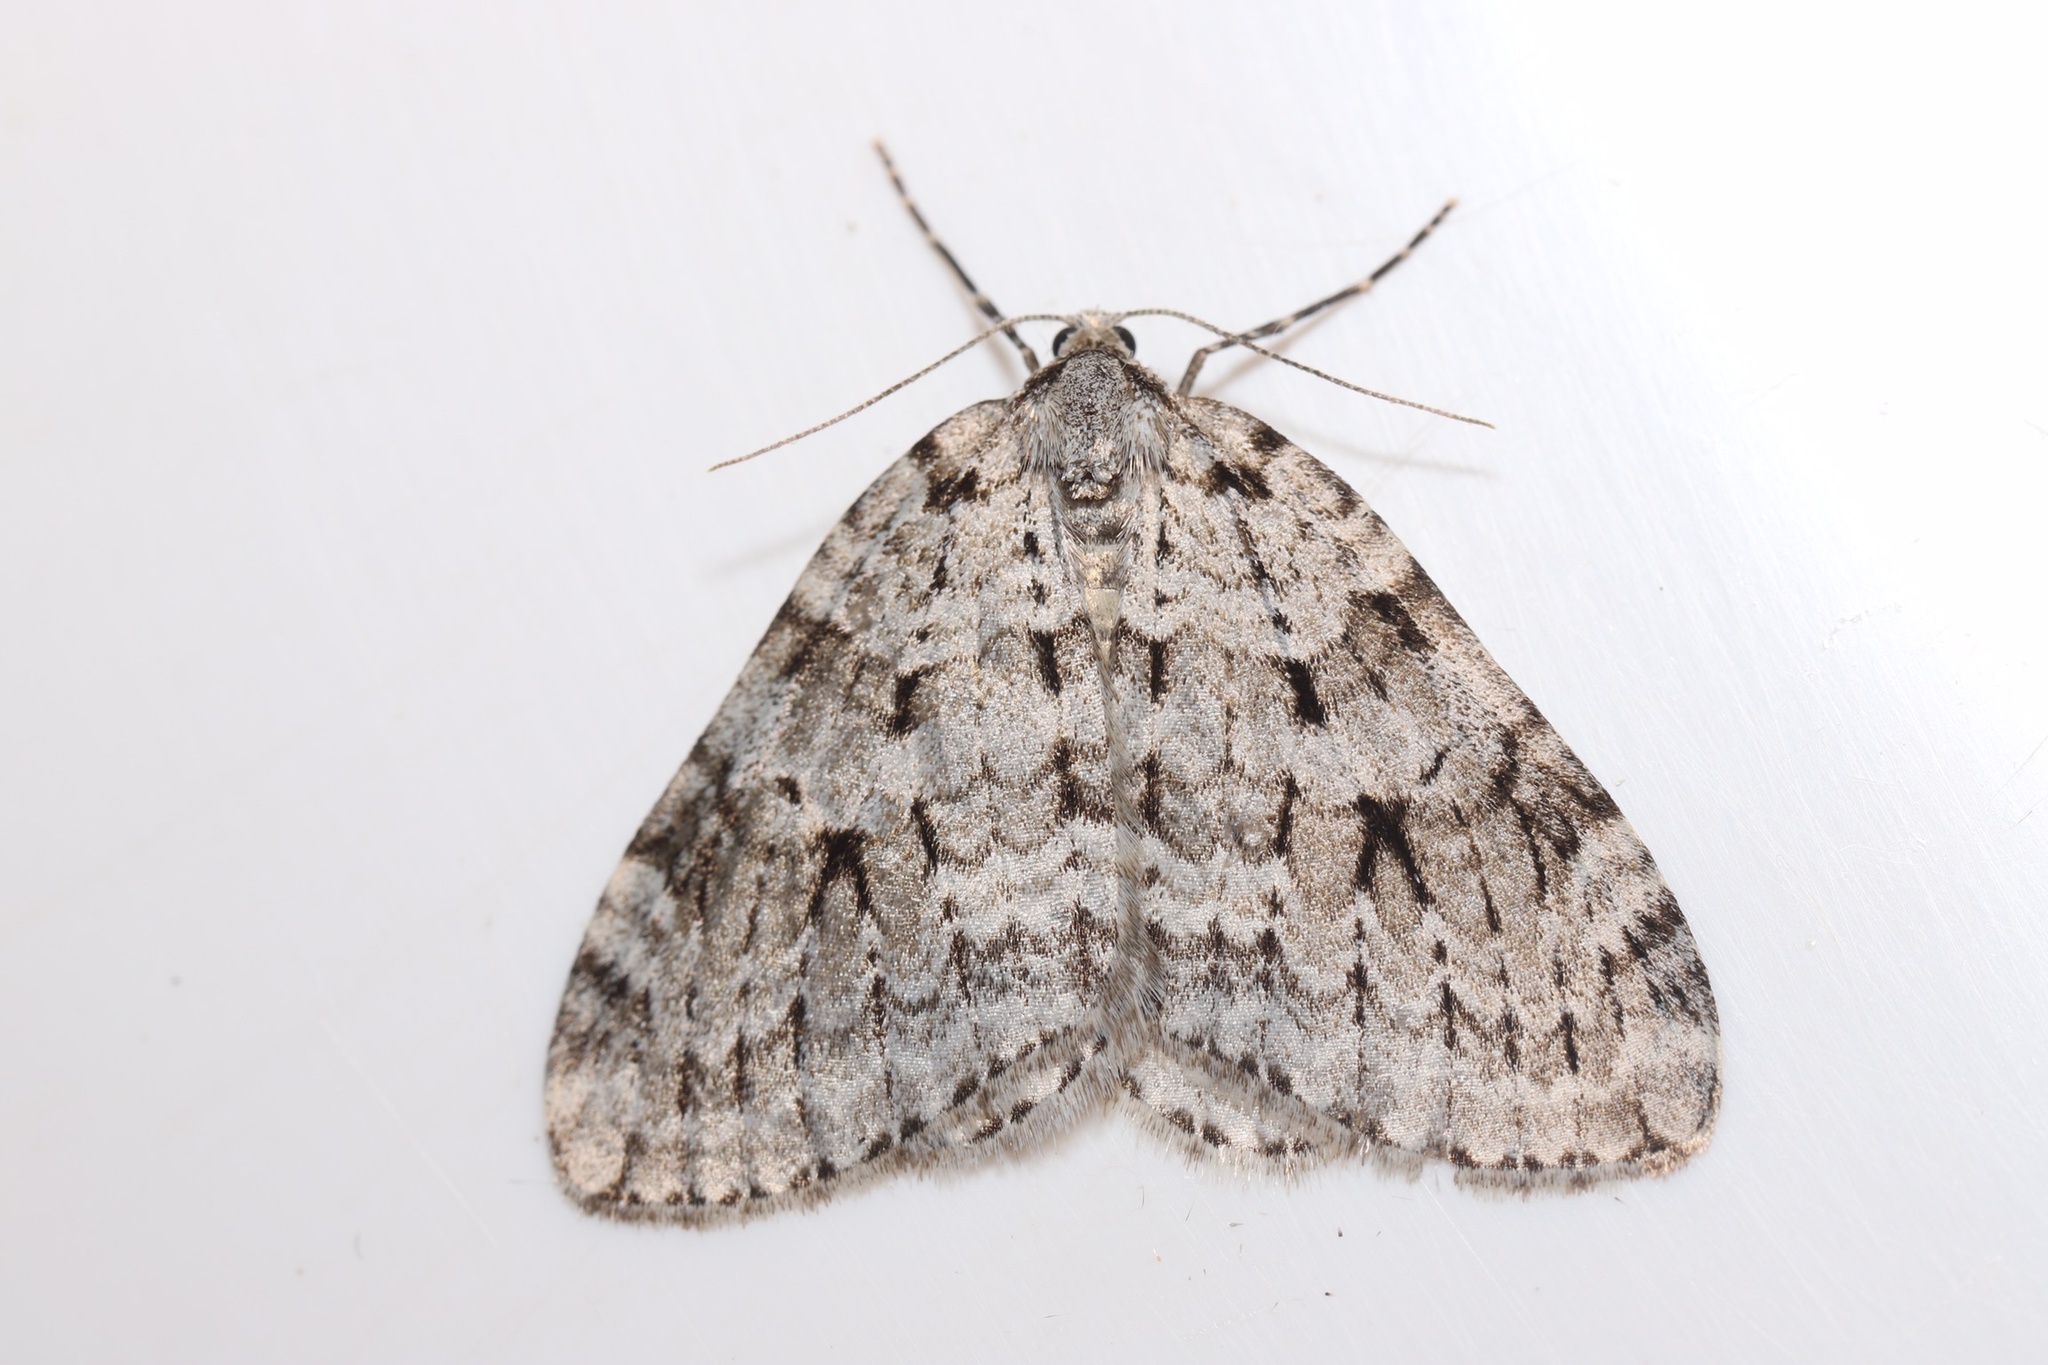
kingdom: Animalia
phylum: Arthropoda
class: Insecta
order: Lepidoptera
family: Geometridae
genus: Epirrita
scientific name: Epirrita autumnata
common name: Autumnal moth
